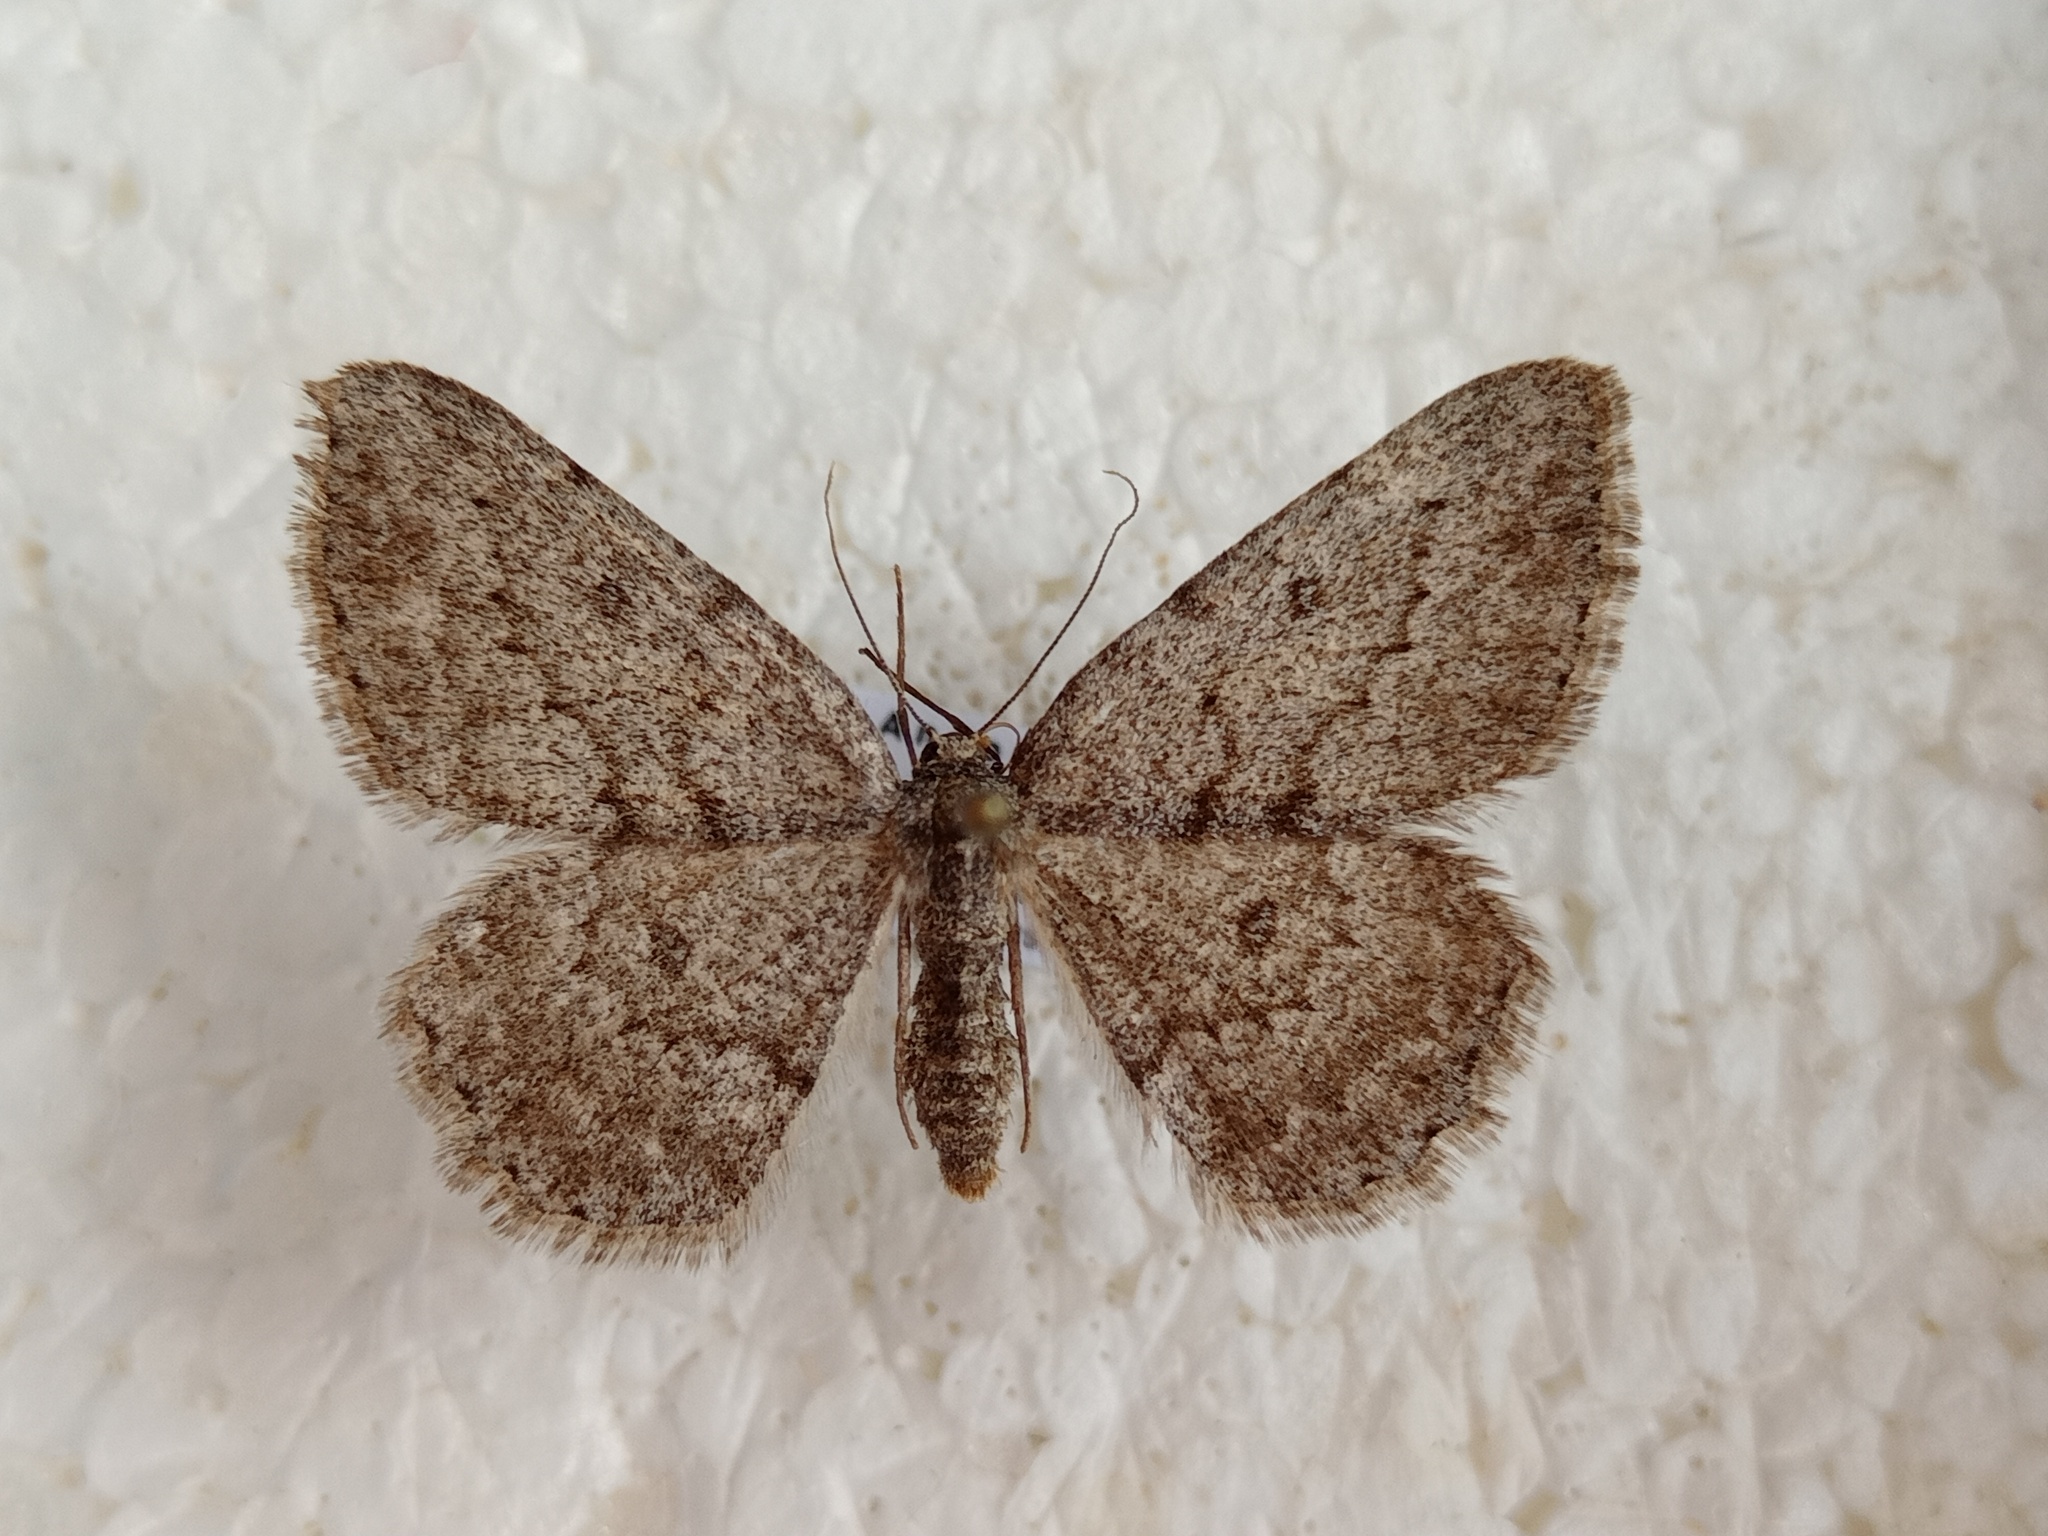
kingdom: Animalia
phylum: Arthropoda
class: Insecta
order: Lepidoptera
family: Geometridae
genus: Charissa
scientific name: Charissa ambiguata
